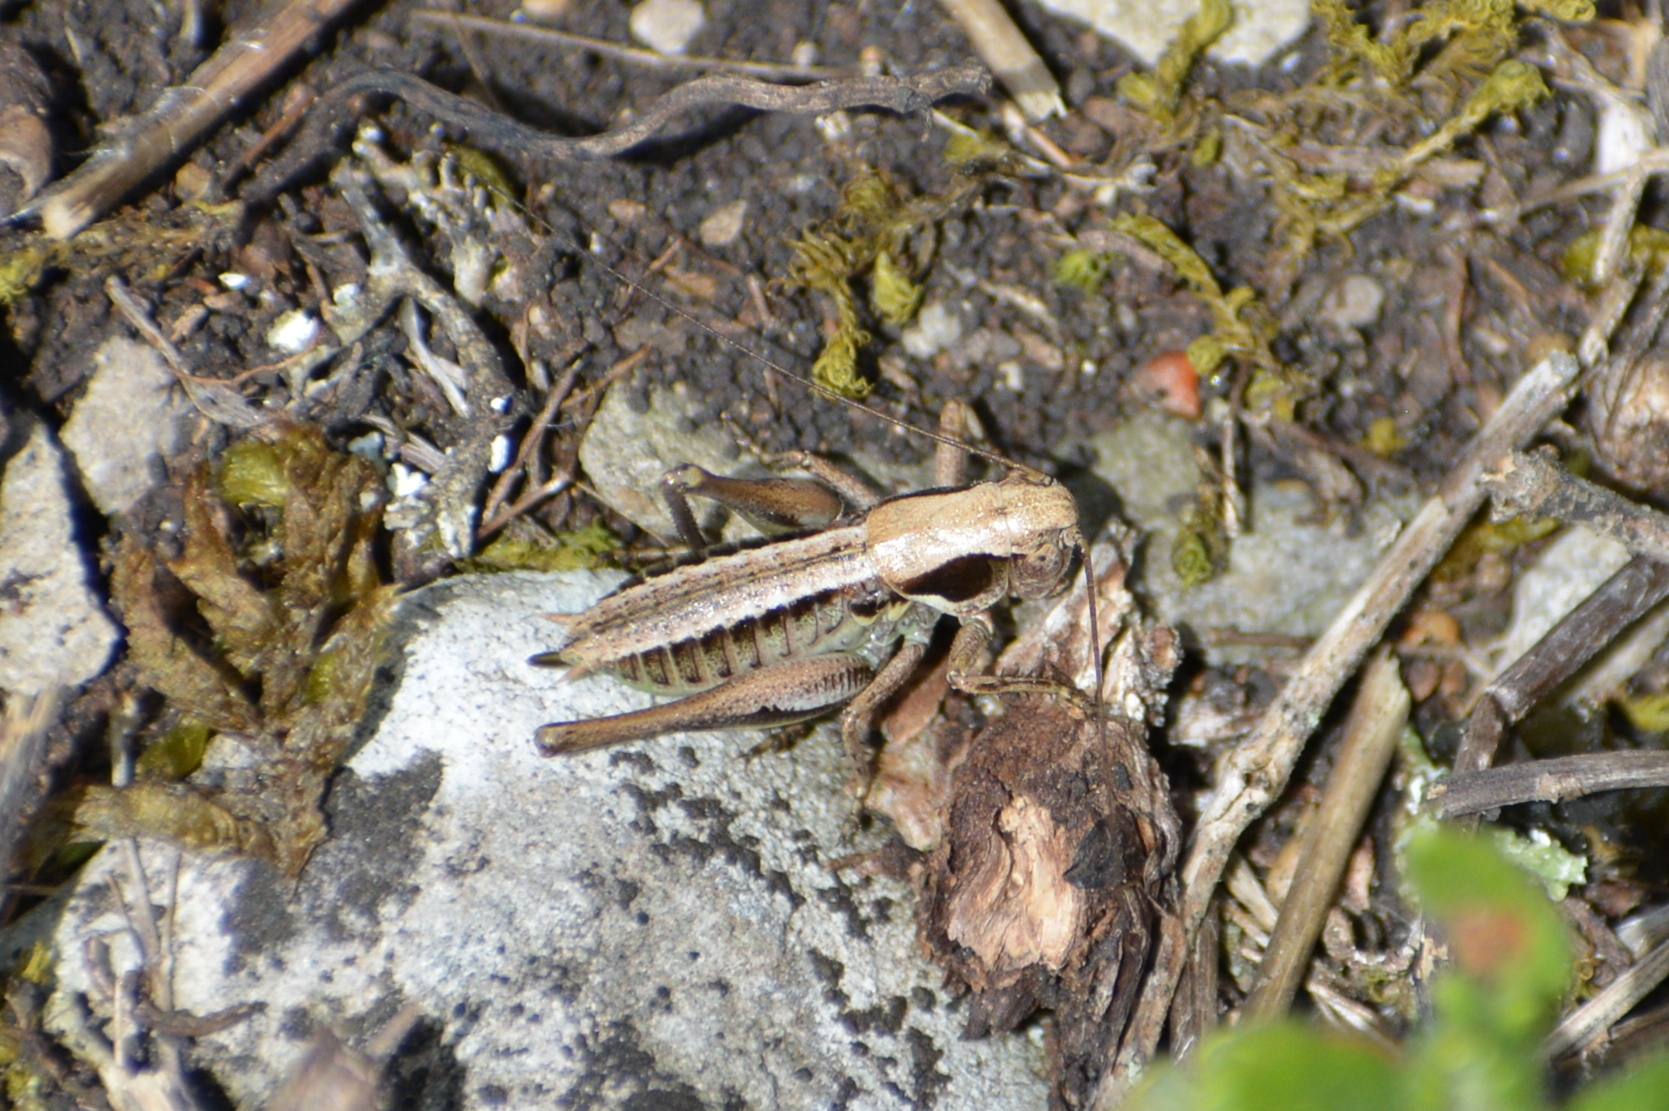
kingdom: Animalia
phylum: Arthropoda
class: Insecta
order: Orthoptera
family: Tettigoniidae
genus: Platycleis
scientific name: Platycleis albopunctata
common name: Grey bush-cricket
